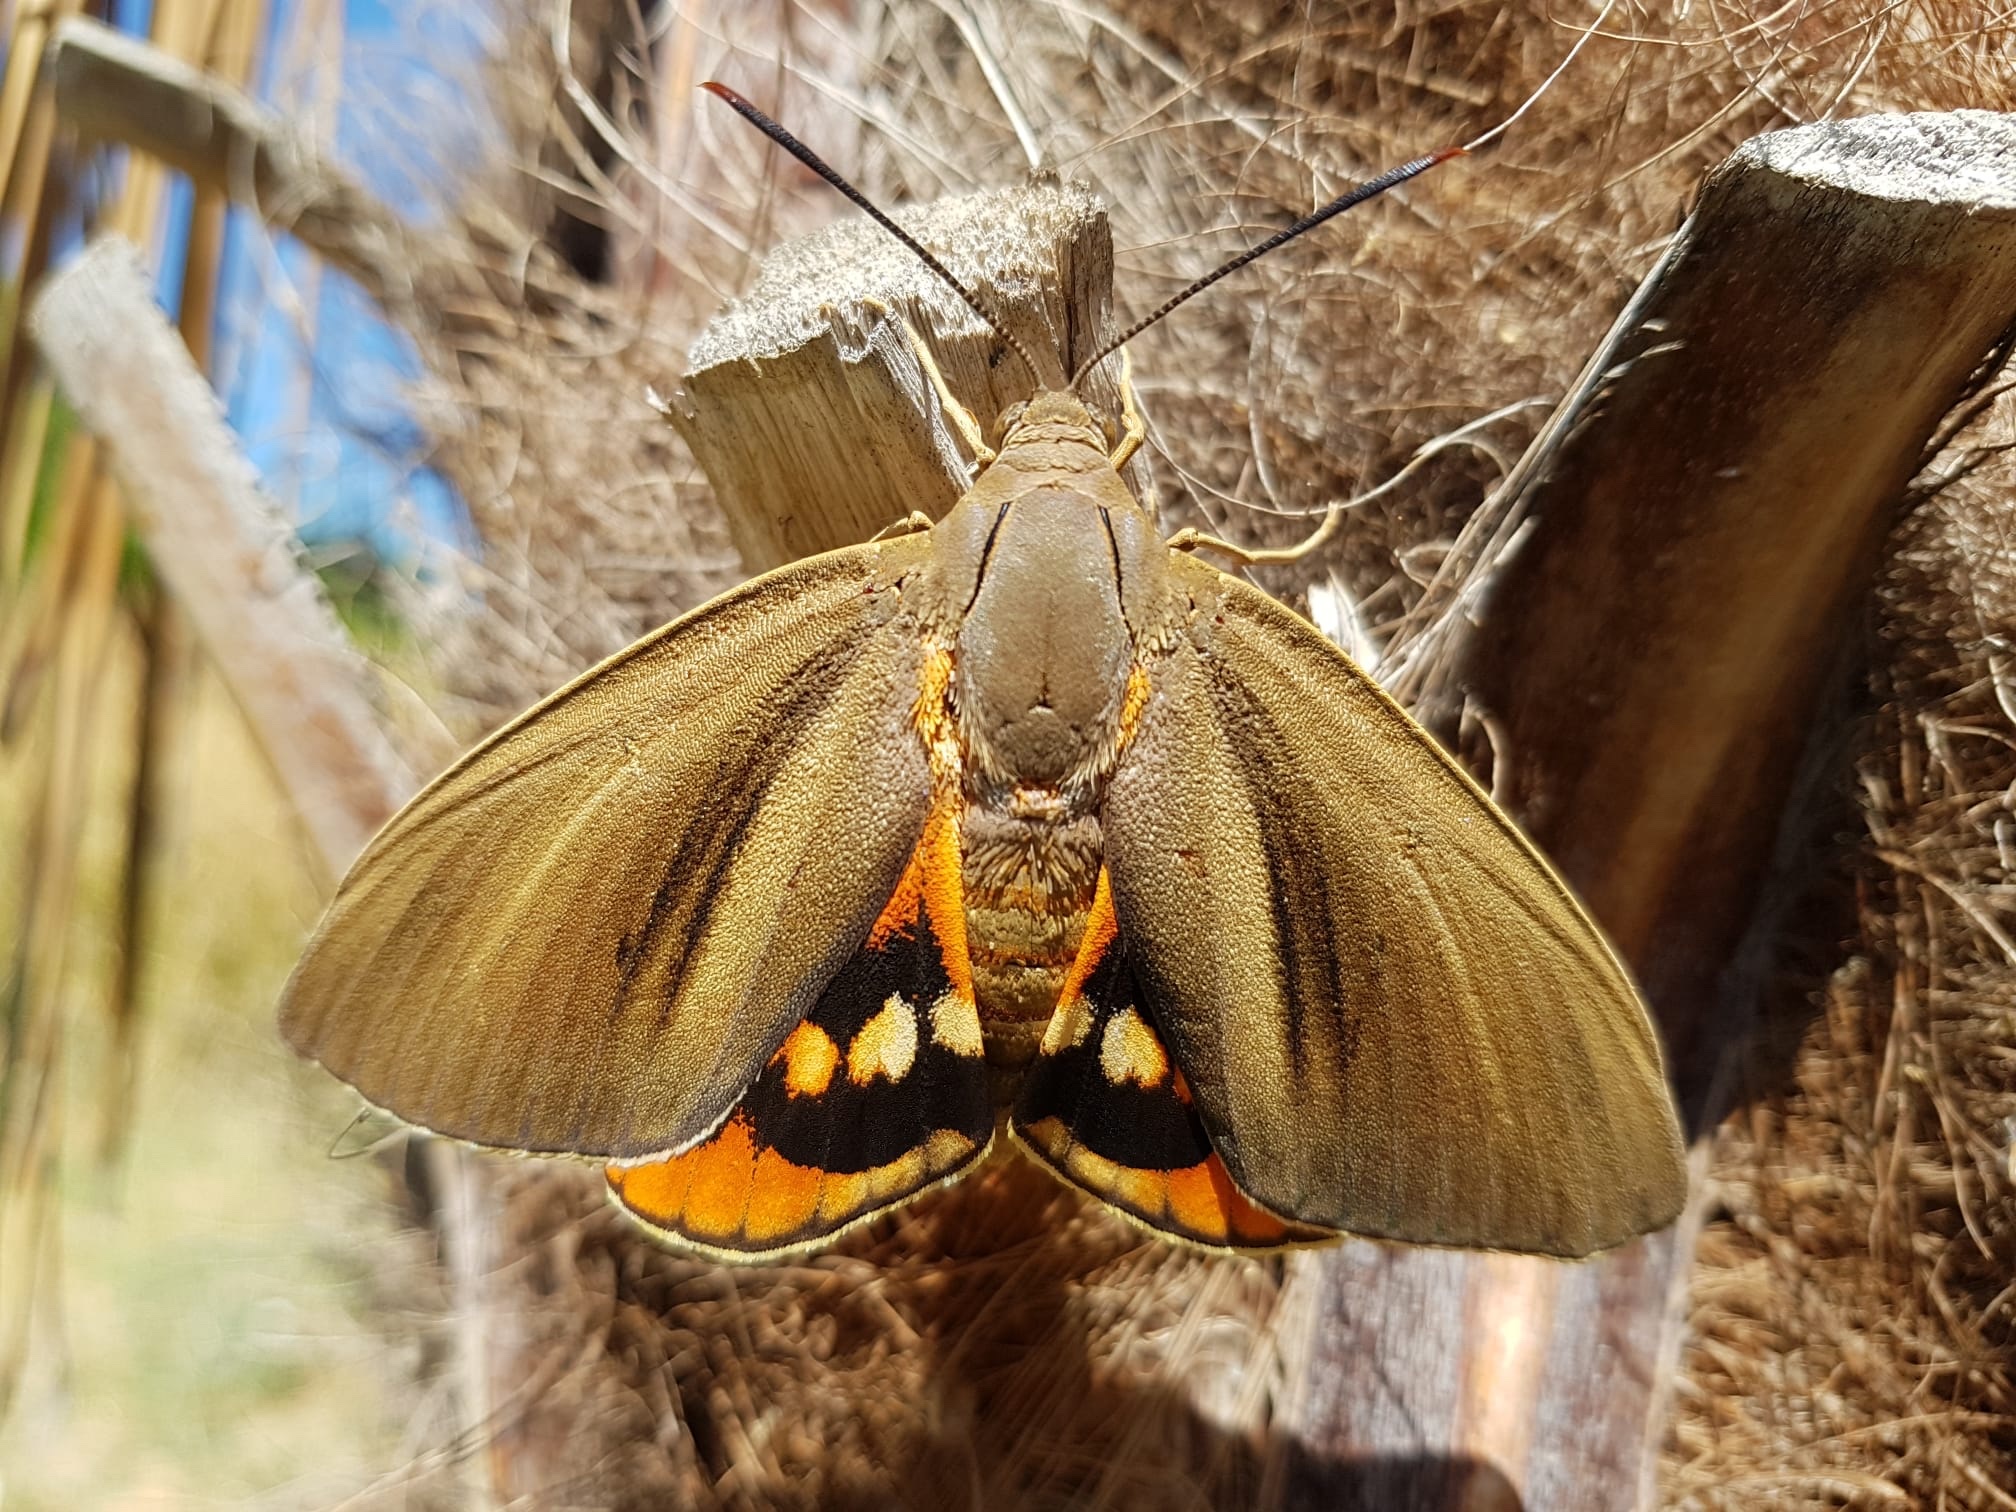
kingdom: Animalia
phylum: Arthropoda
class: Insecta
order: Lepidoptera
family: Castniidae
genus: Paysandisia
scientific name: Paysandisia archon
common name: Palm moth
